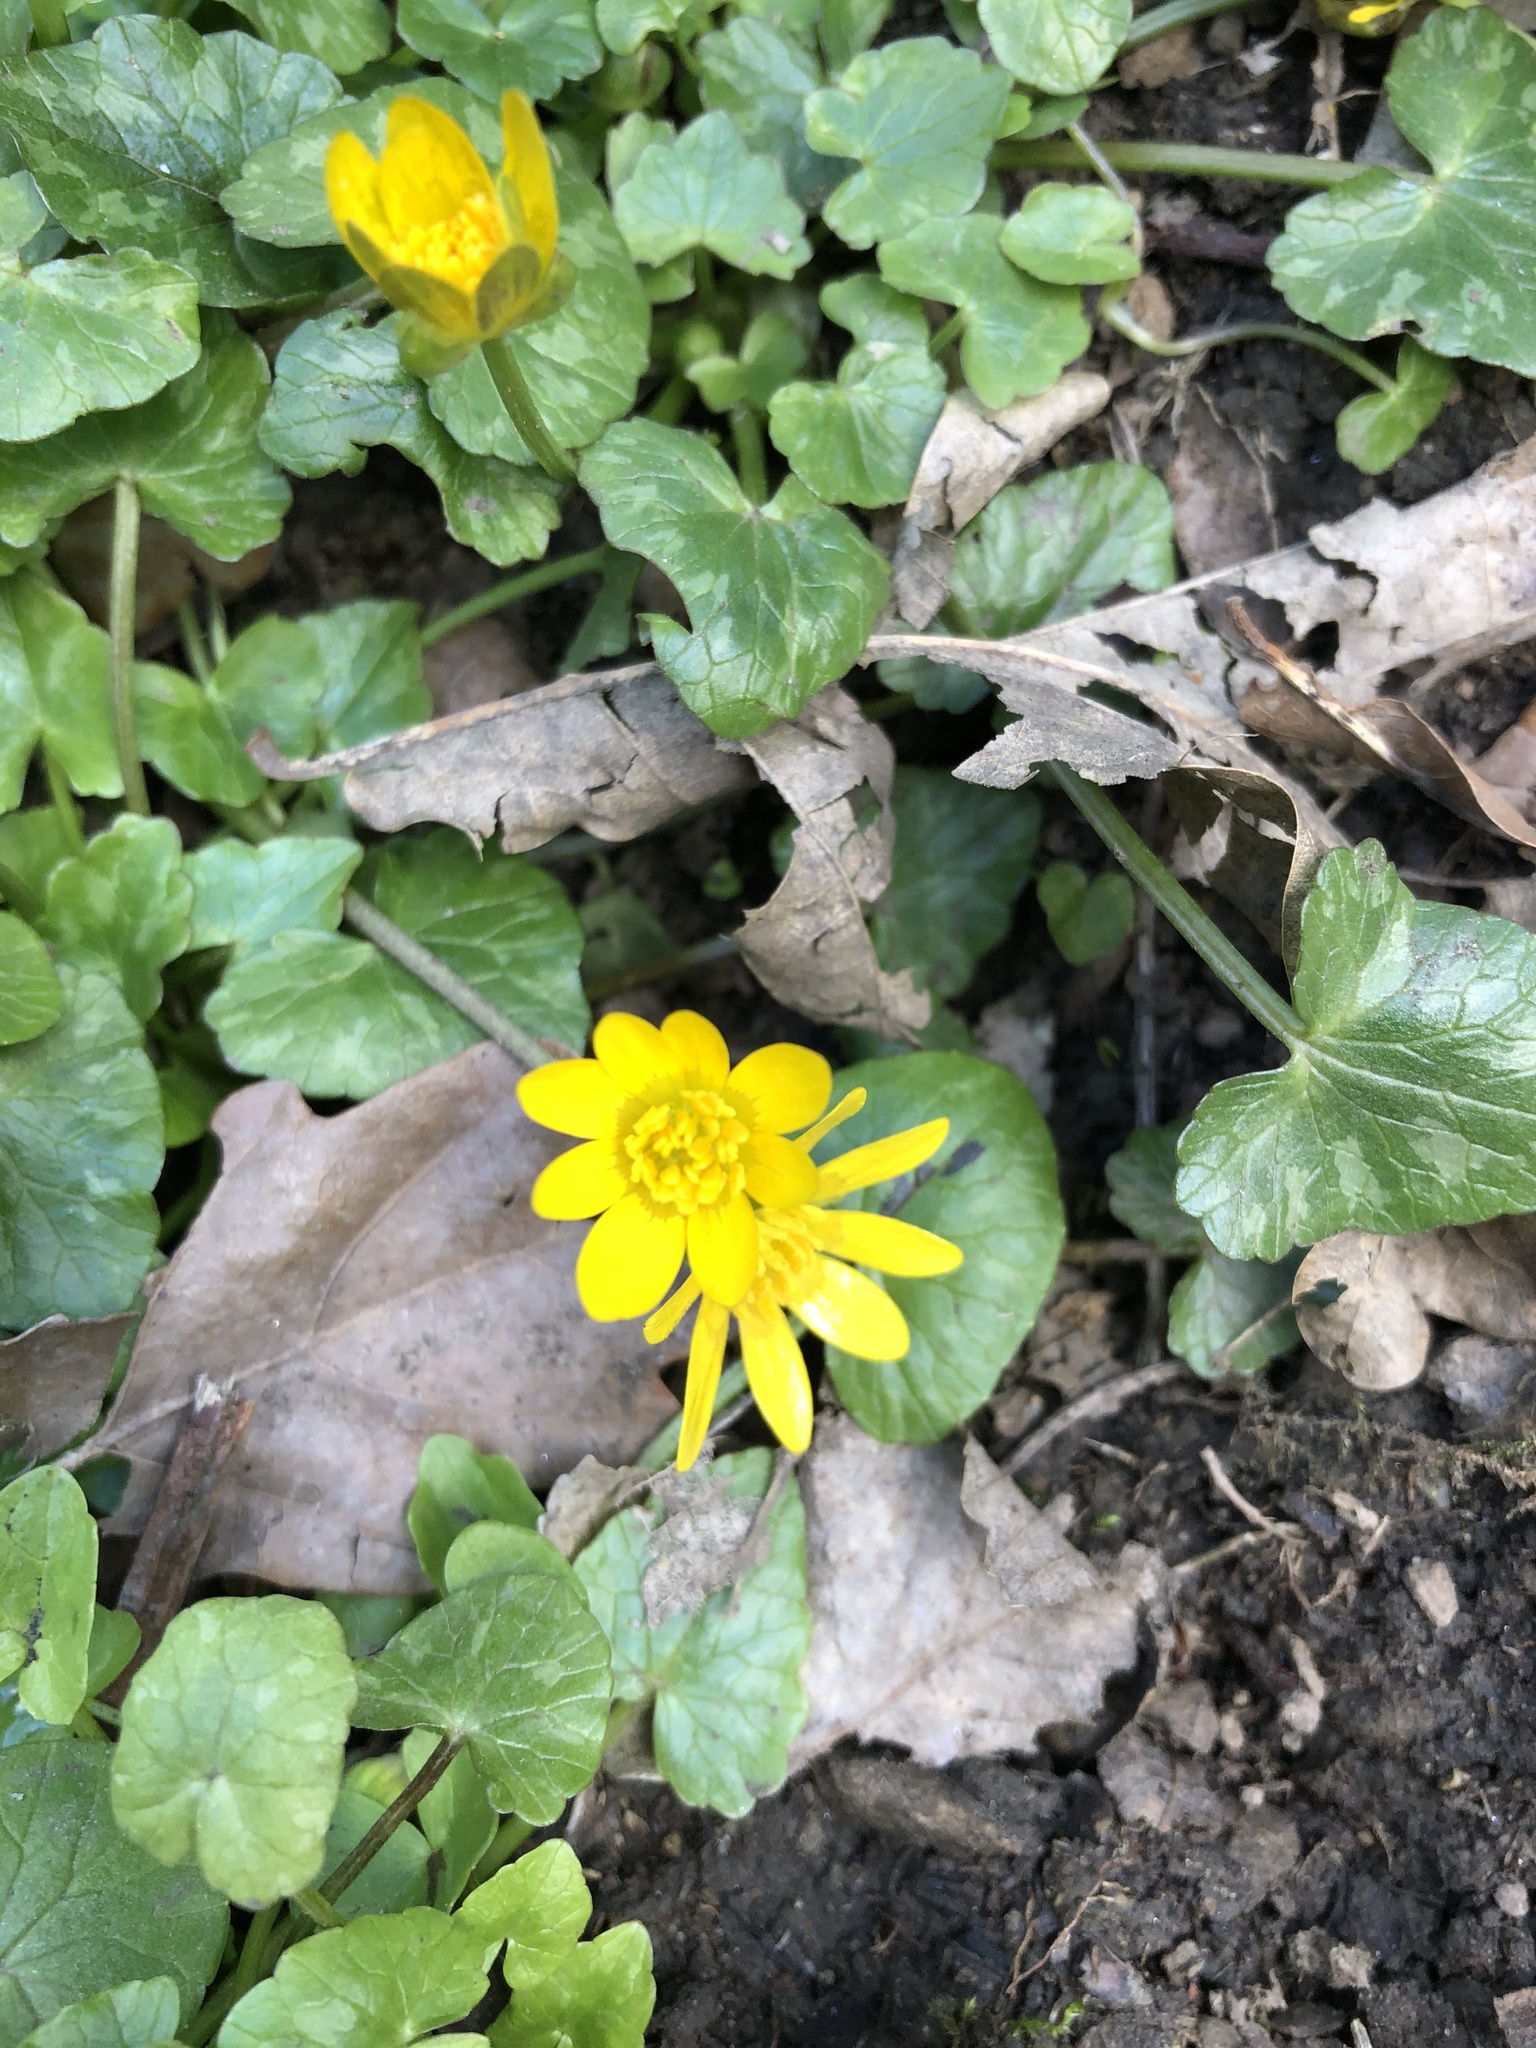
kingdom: Plantae
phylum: Tracheophyta
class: Magnoliopsida
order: Ranunculales
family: Ranunculaceae
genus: Ficaria
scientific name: Ficaria verna
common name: Lesser celandine
